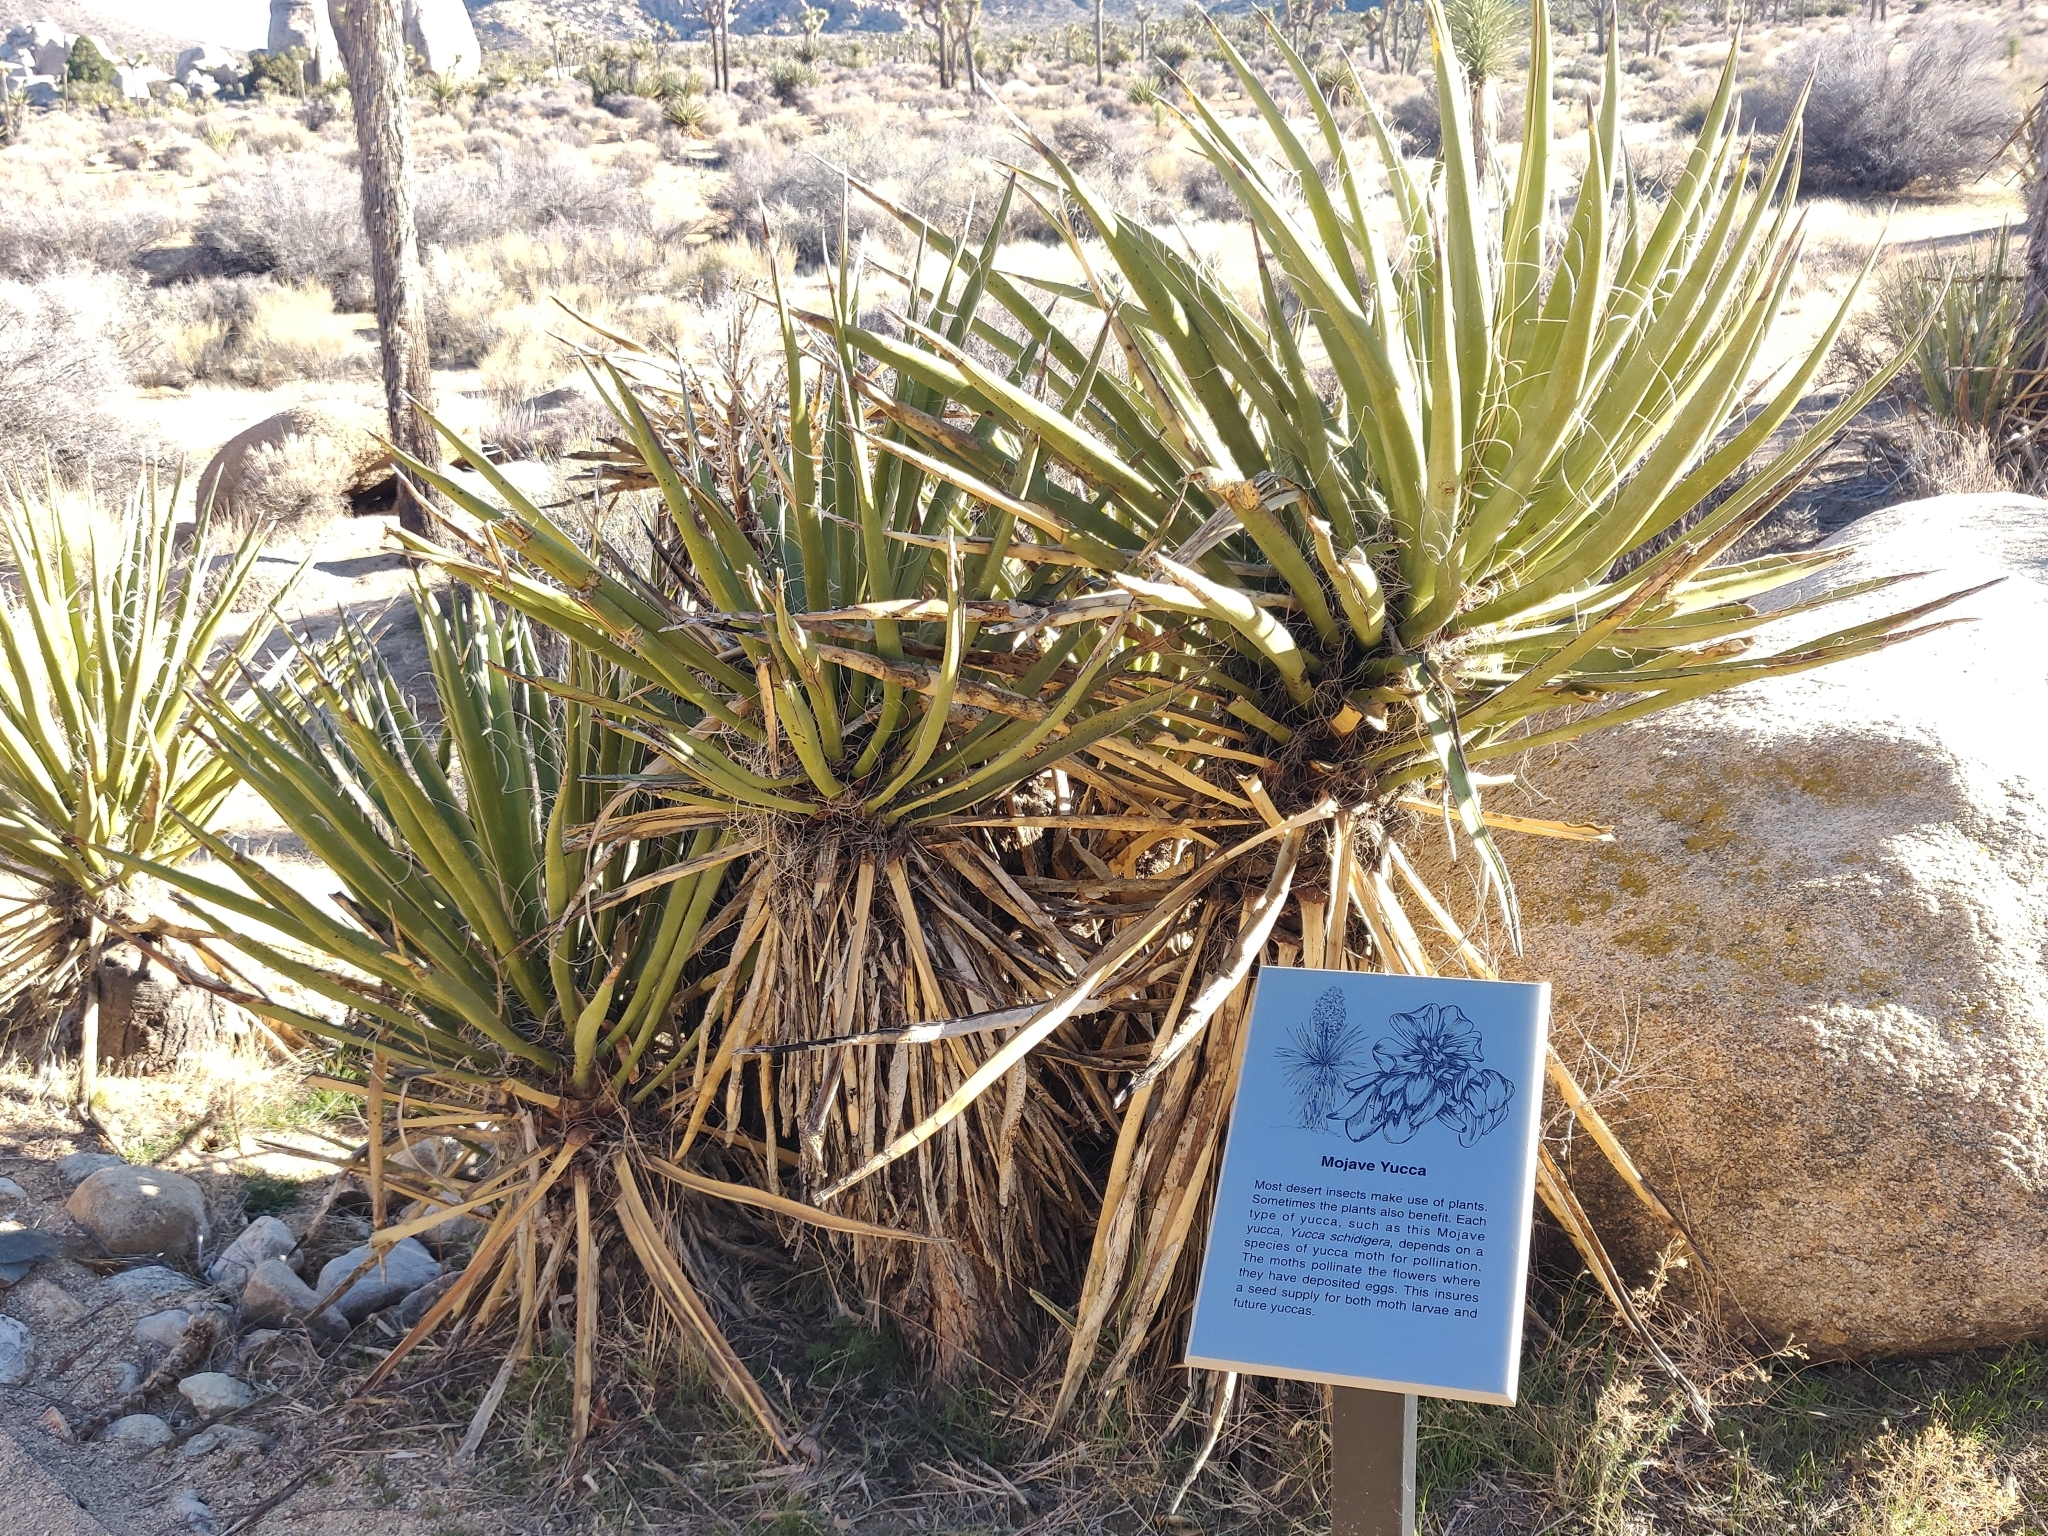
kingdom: Plantae
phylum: Tracheophyta
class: Liliopsida
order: Asparagales
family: Asparagaceae
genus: Yucca
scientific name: Yucca schidigera
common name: Mojave yucca
